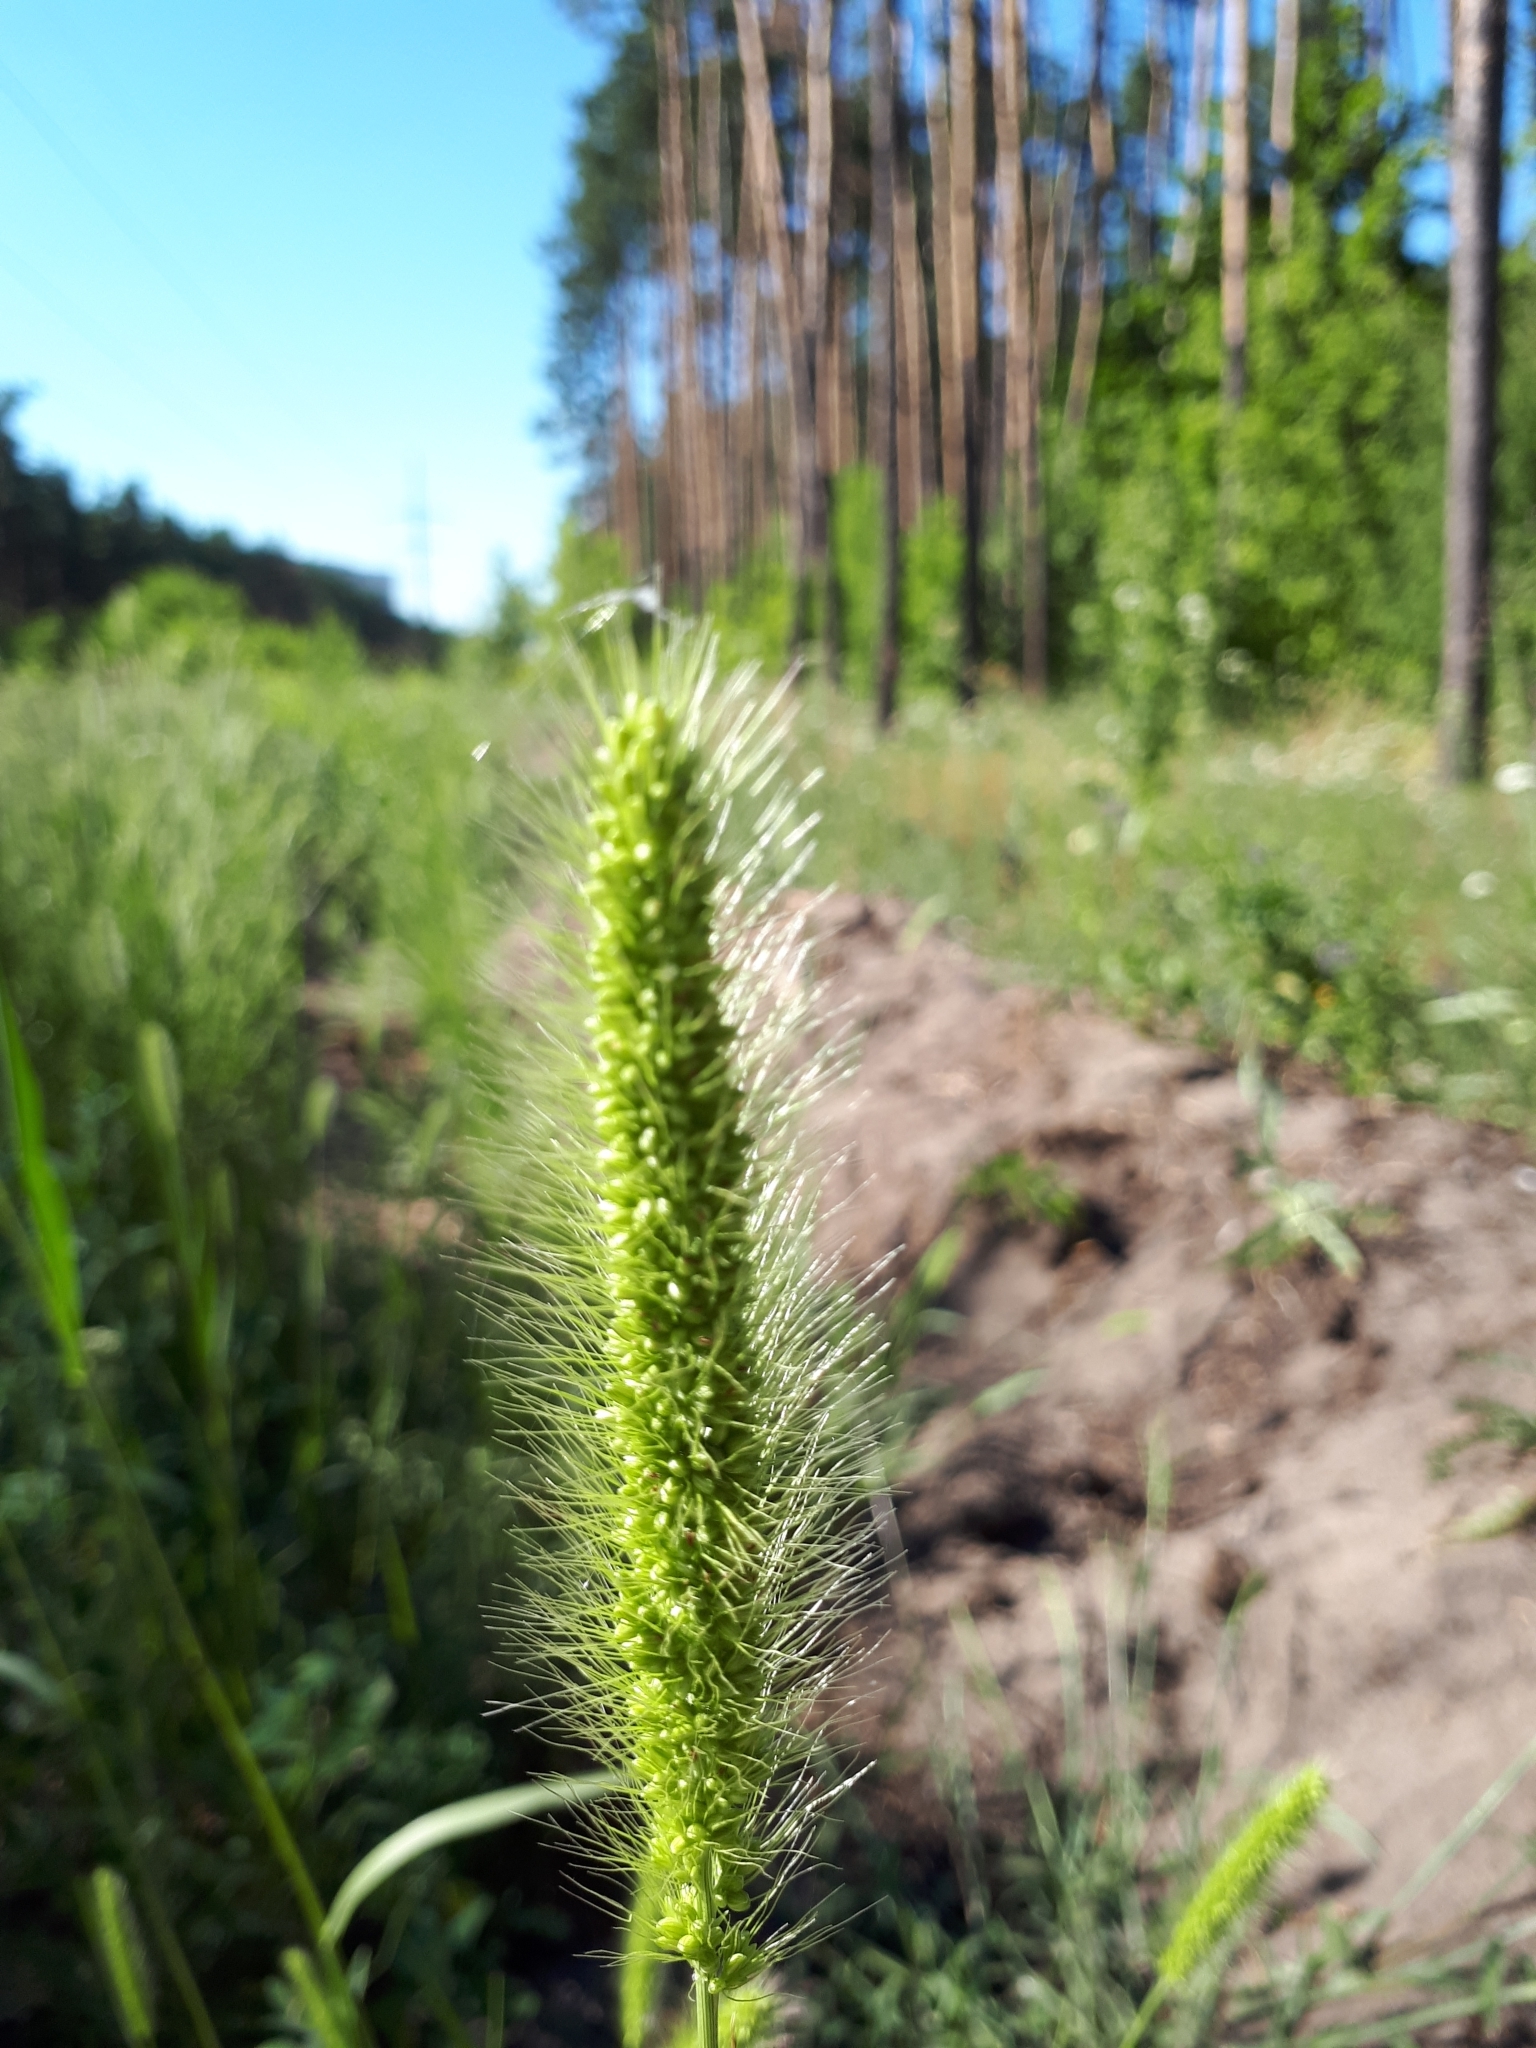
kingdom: Plantae
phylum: Tracheophyta
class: Liliopsida
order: Poales
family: Poaceae
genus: Setaria
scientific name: Setaria viridis
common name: Green bristlegrass
